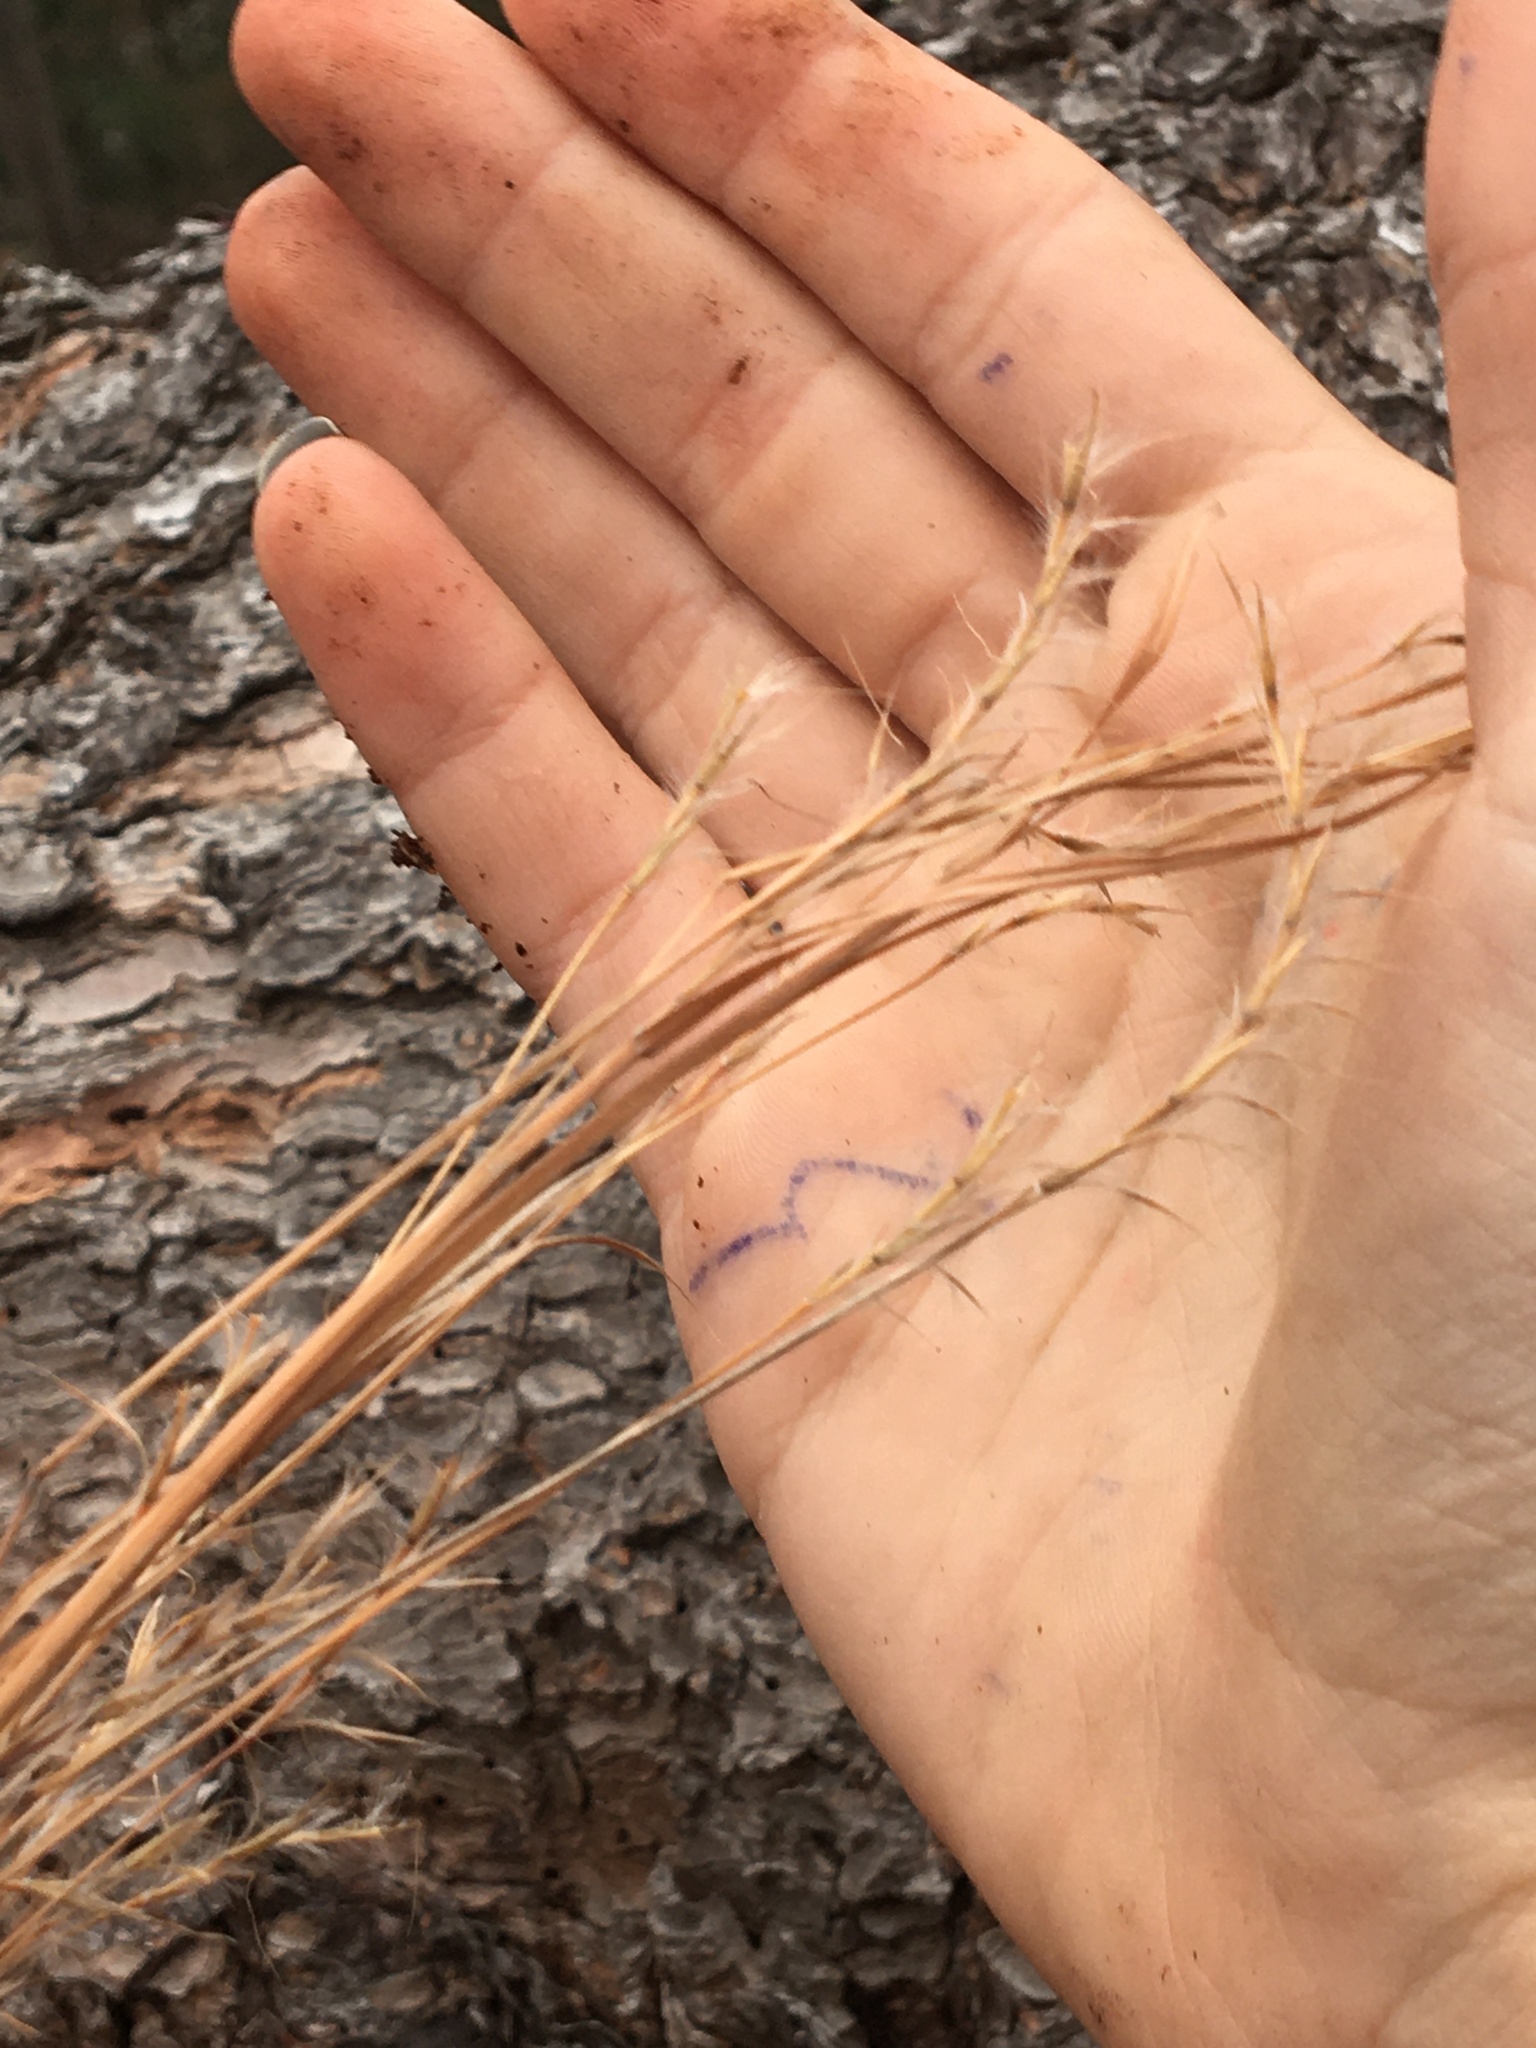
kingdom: Plantae
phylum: Tracheophyta
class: Liliopsida
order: Poales
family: Poaceae
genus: Schizachyrium
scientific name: Schizachyrium scoparium
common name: Little bluestem
